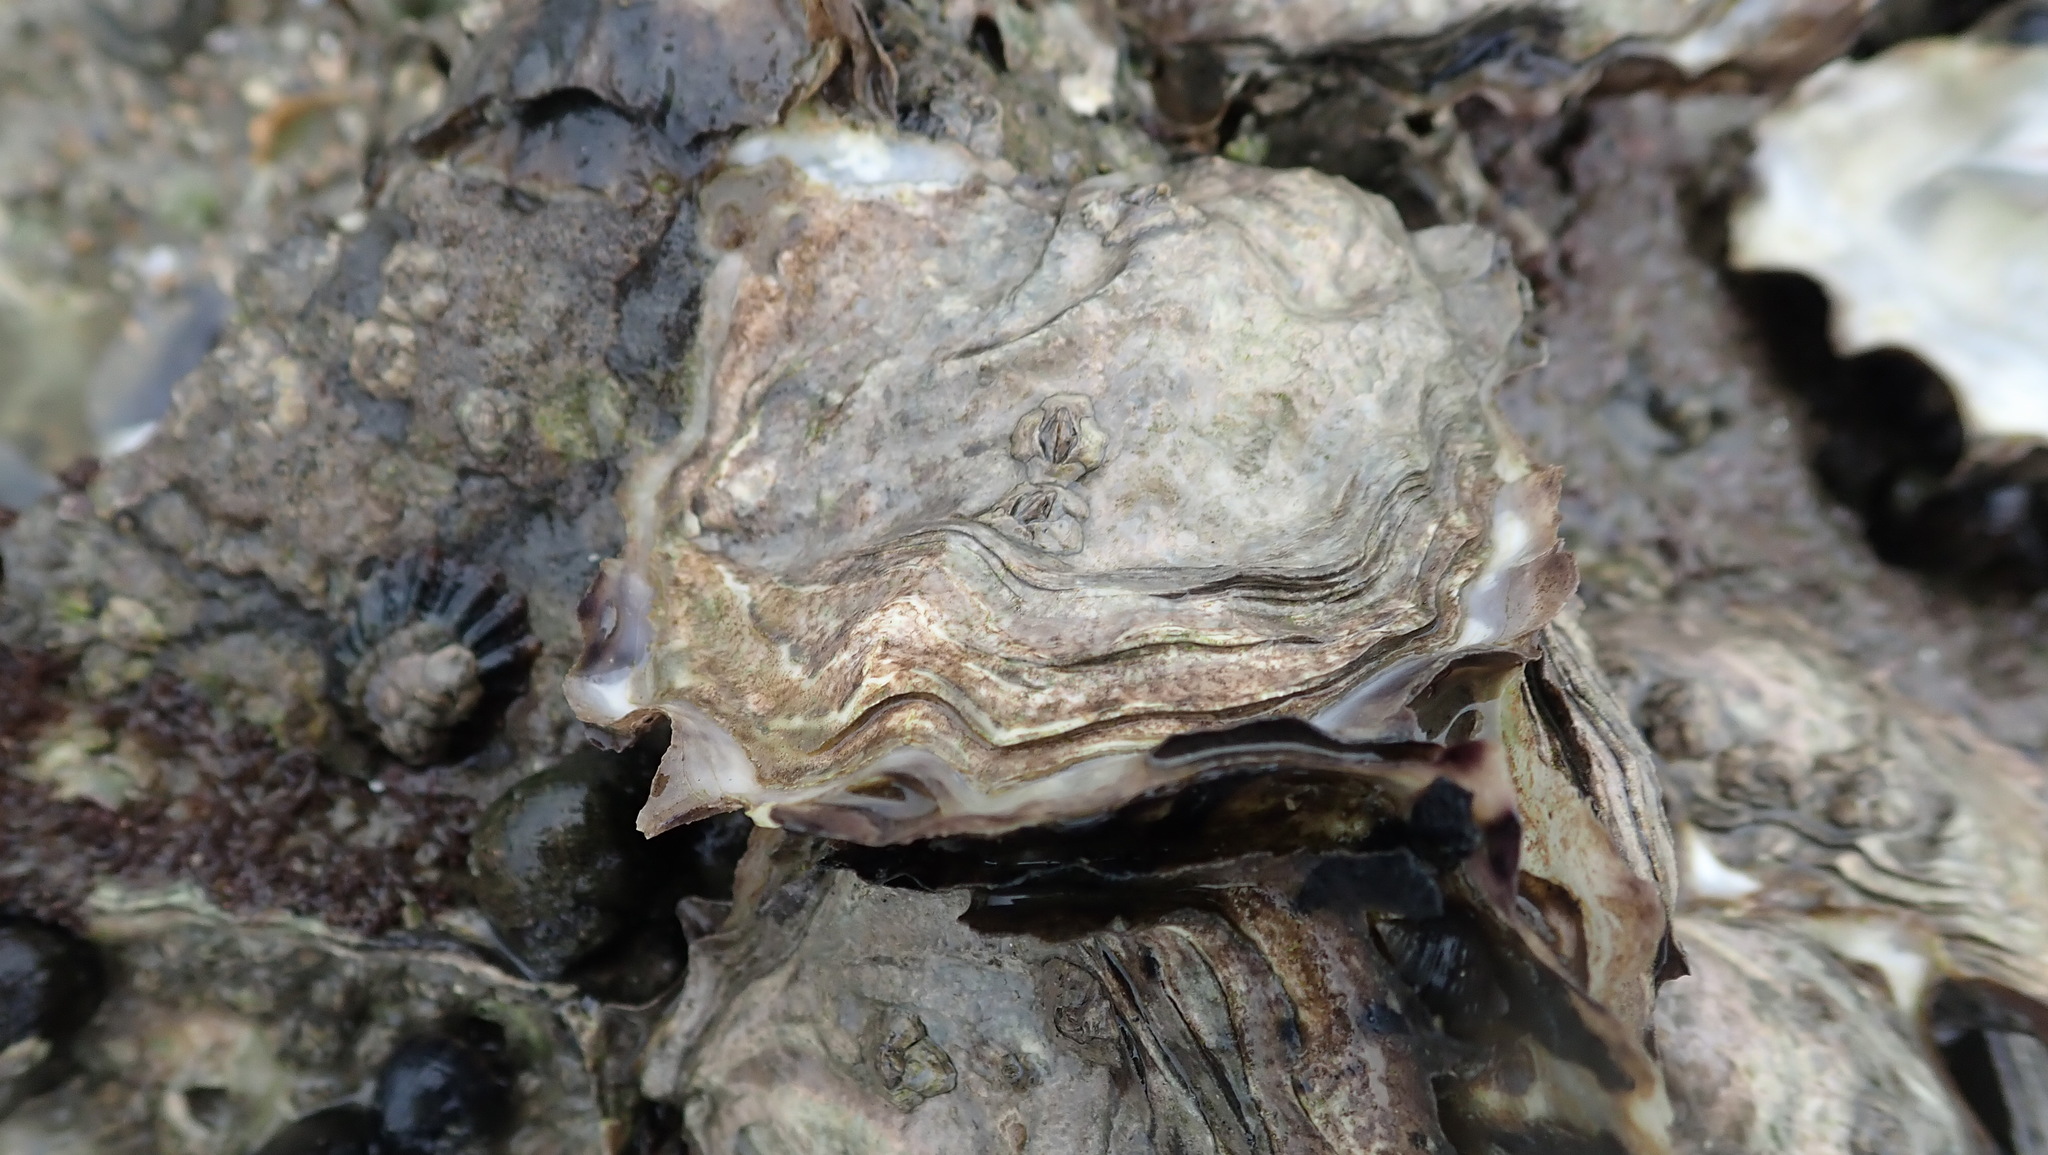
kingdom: Animalia
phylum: Mollusca
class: Bivalvia
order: Ostreida
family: Ostreidae
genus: Magallana
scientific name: Magallana gigas
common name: Pacific oyster
